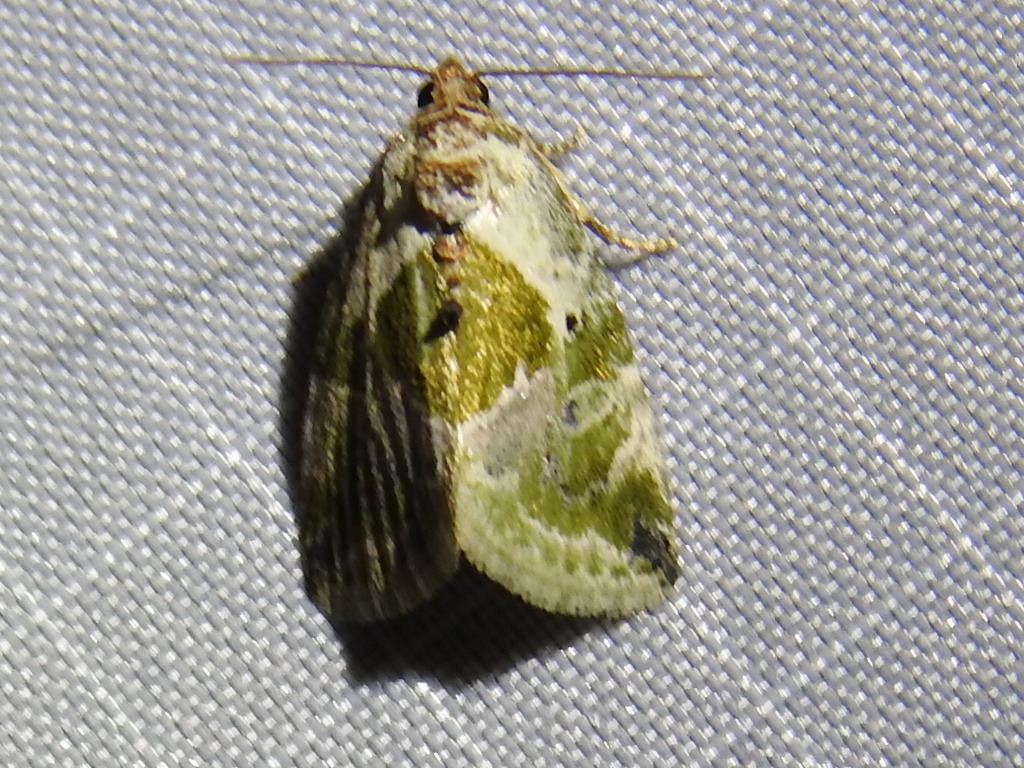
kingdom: Animalia
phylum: Arthropoda
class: Insecta
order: Lepidoptera
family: Noctuidae
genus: Maliattha
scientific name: Maliattha synochitis
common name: Black-dotted glyph
